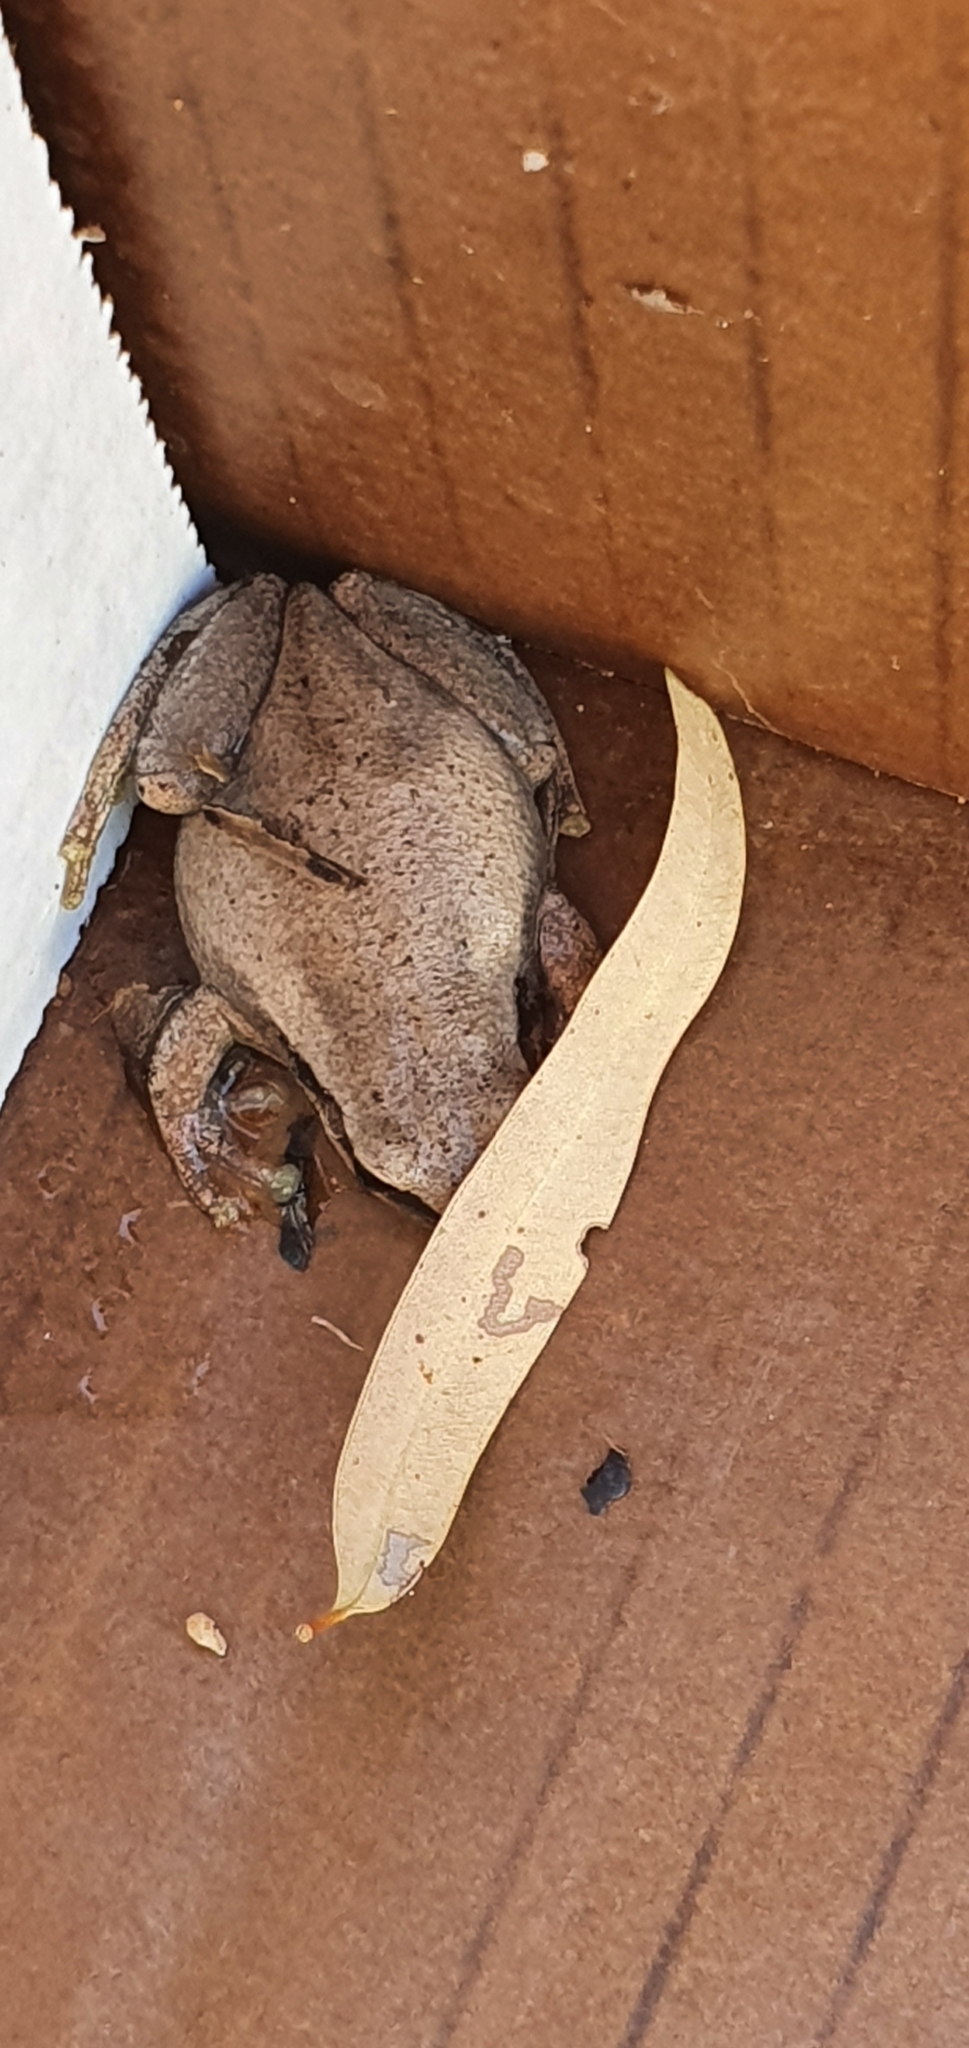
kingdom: Animalia
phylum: Chordata
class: Amphibia
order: Anura
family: Pelodryadidae
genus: Litoria
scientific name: Litoria rubella
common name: Desert tree frog
